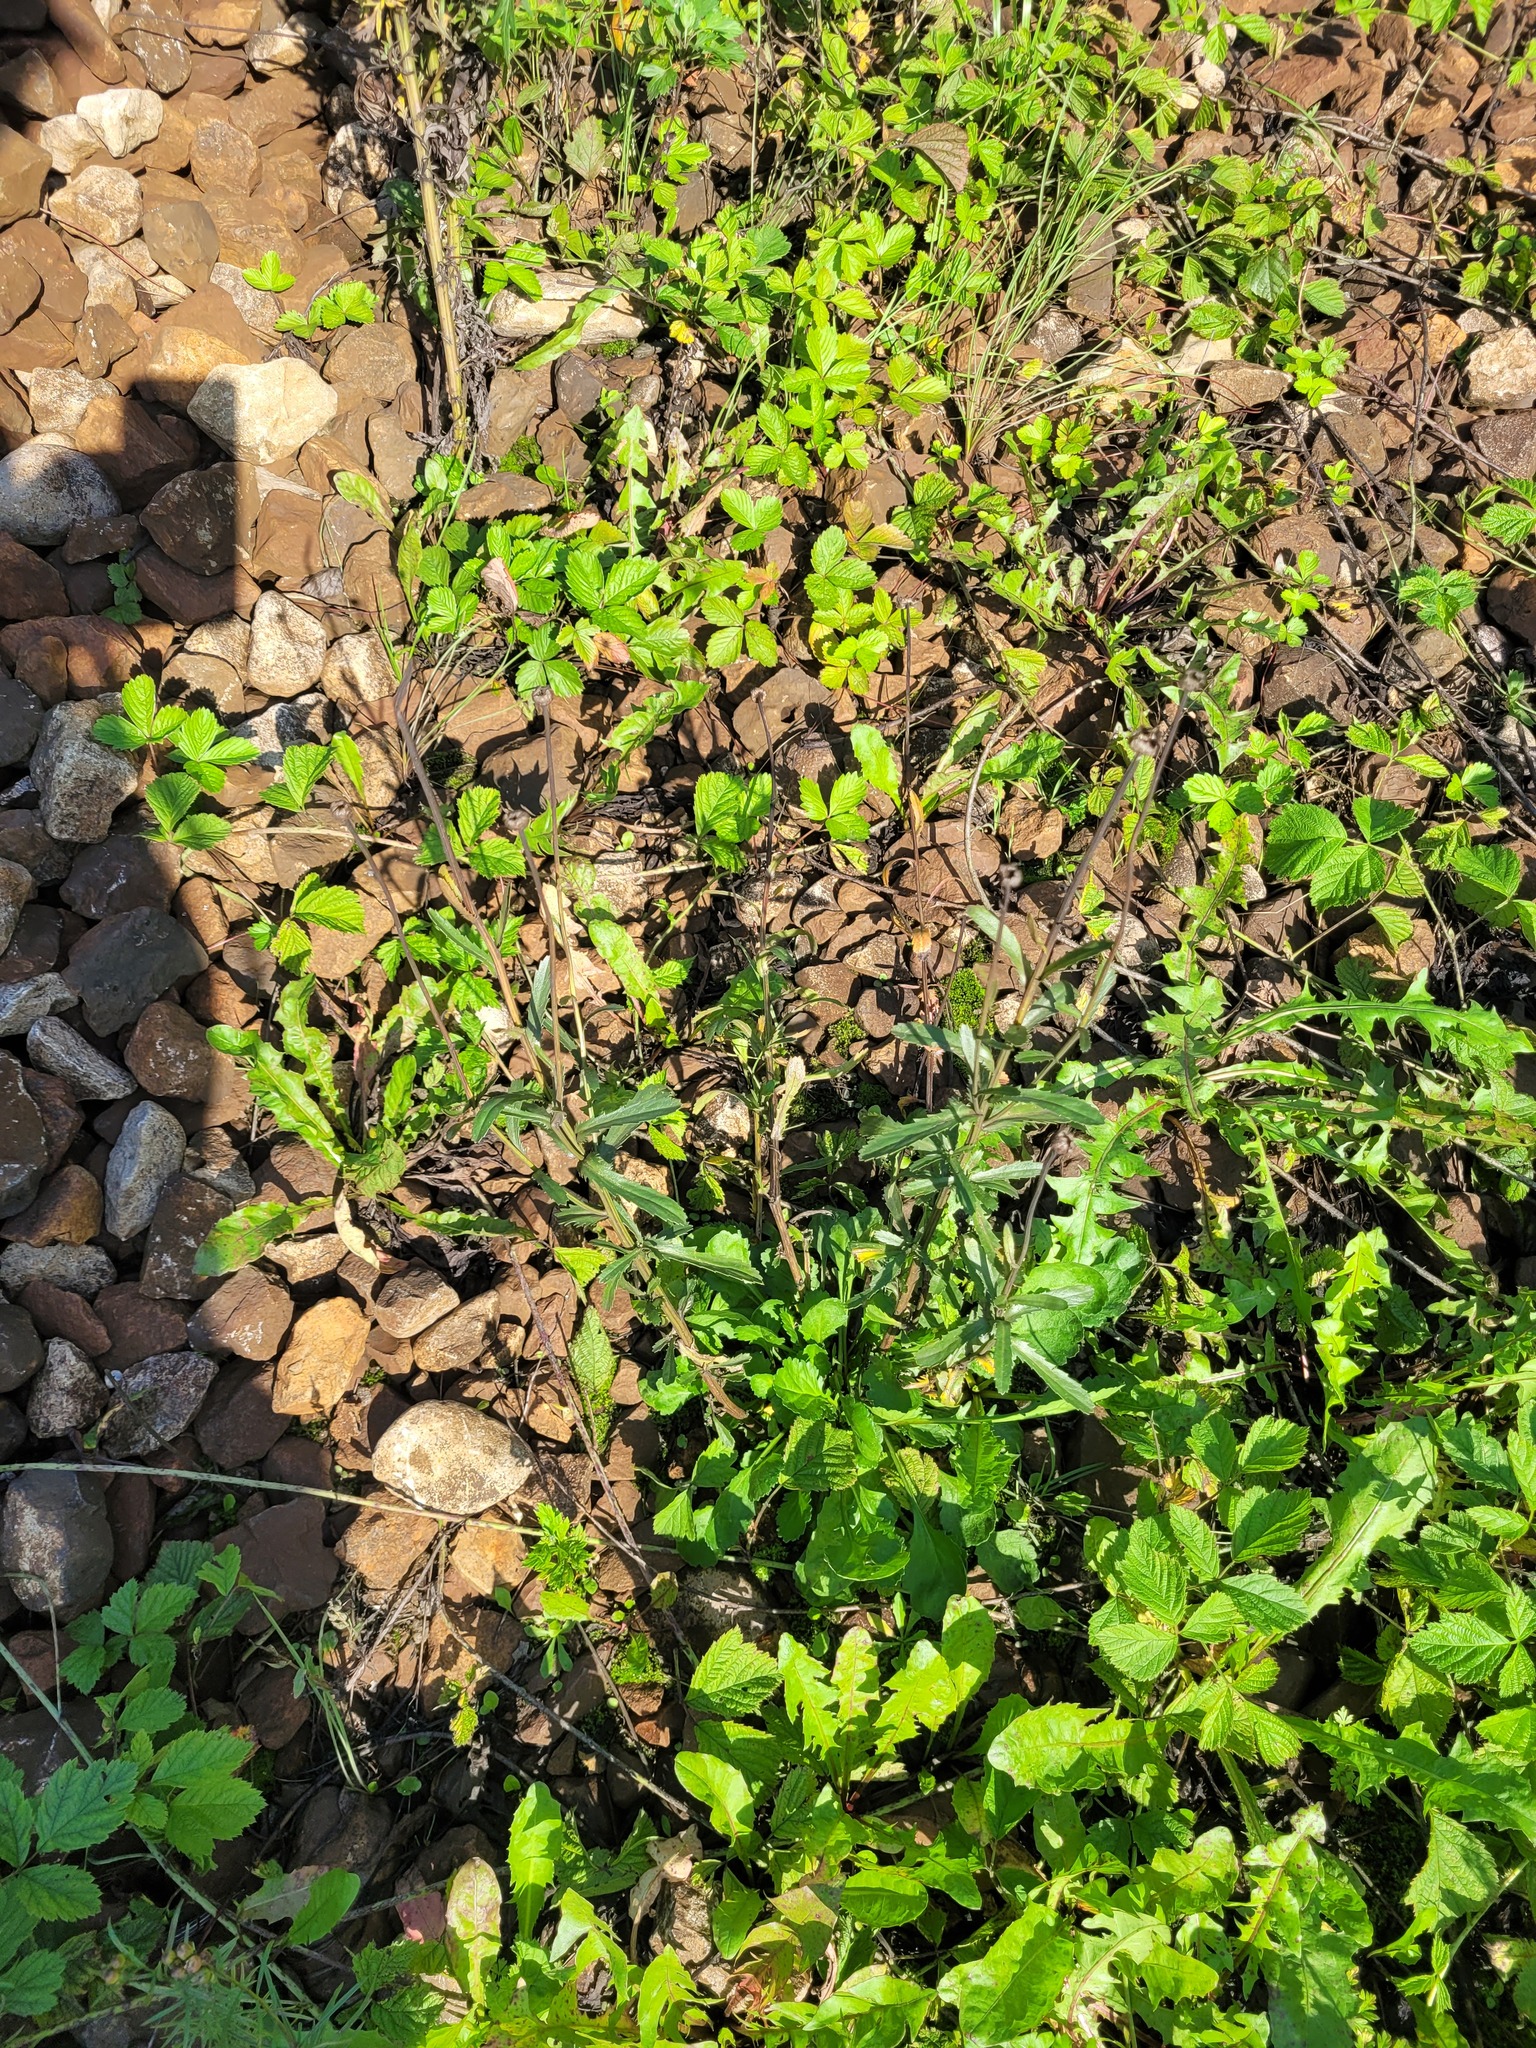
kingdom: Plantae
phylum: Tracheophyta
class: Magnoliopsida
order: Asterales
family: Asteraceae
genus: Leucanthemum
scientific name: Leucanthemum vulgare
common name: Oxeye daisy
